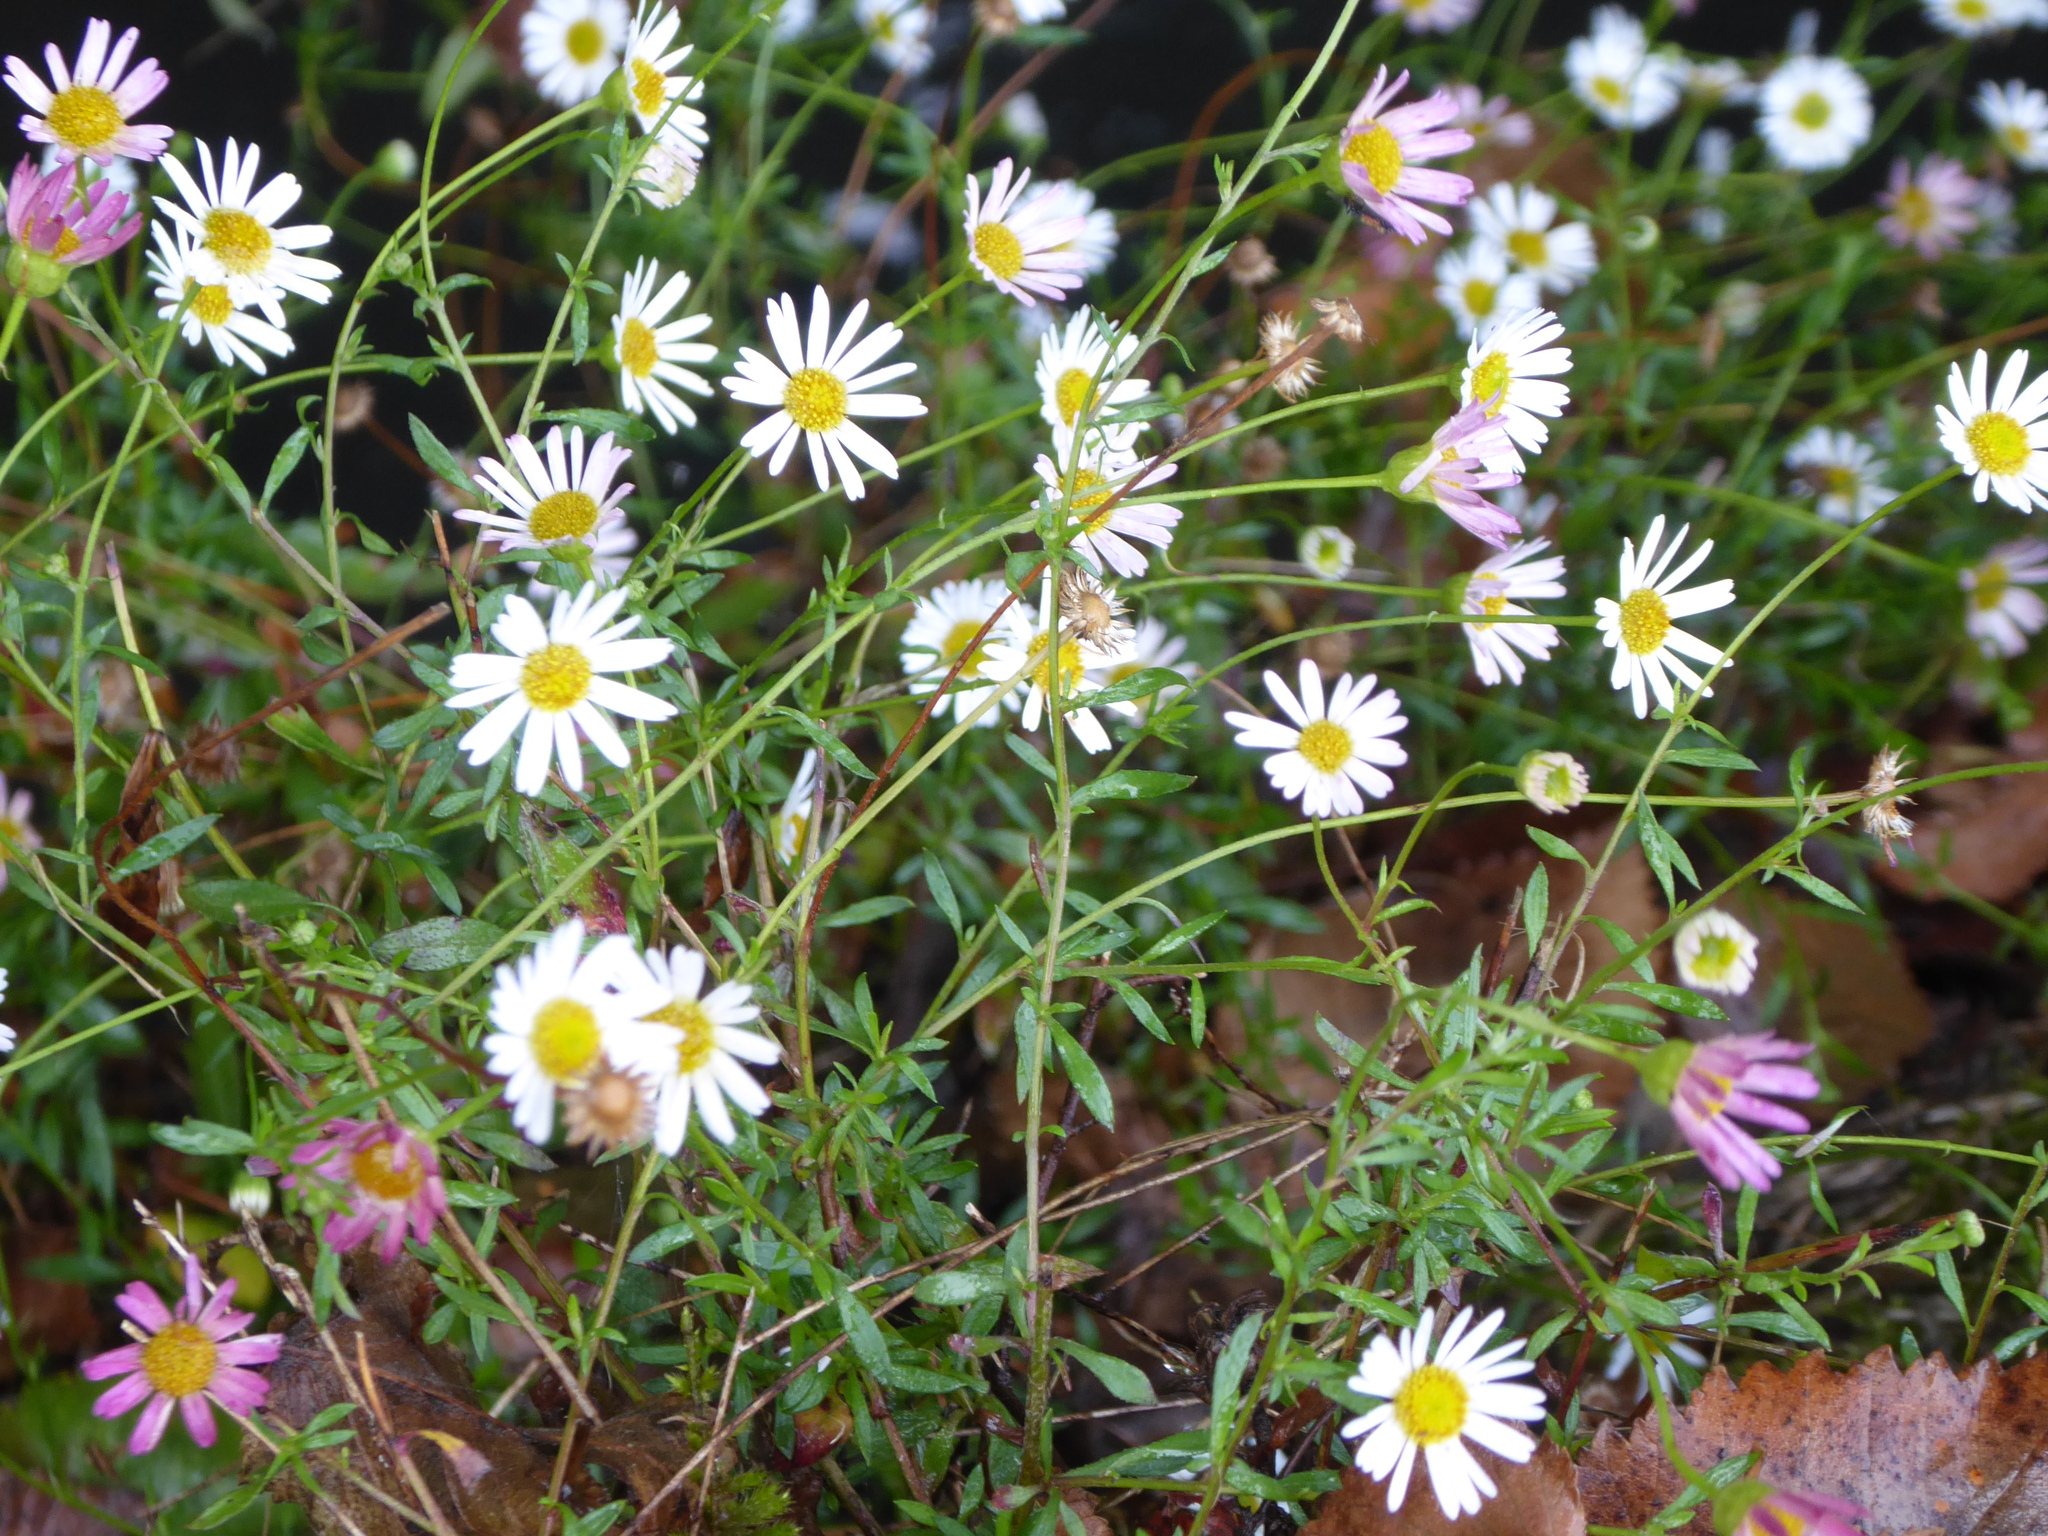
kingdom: Plantae
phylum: Tracheophyta
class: Magnoliopsida
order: Asterales
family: Asteraceae
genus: Erigeron
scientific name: Erigeron karvinskianus
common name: Mexican fleabane
